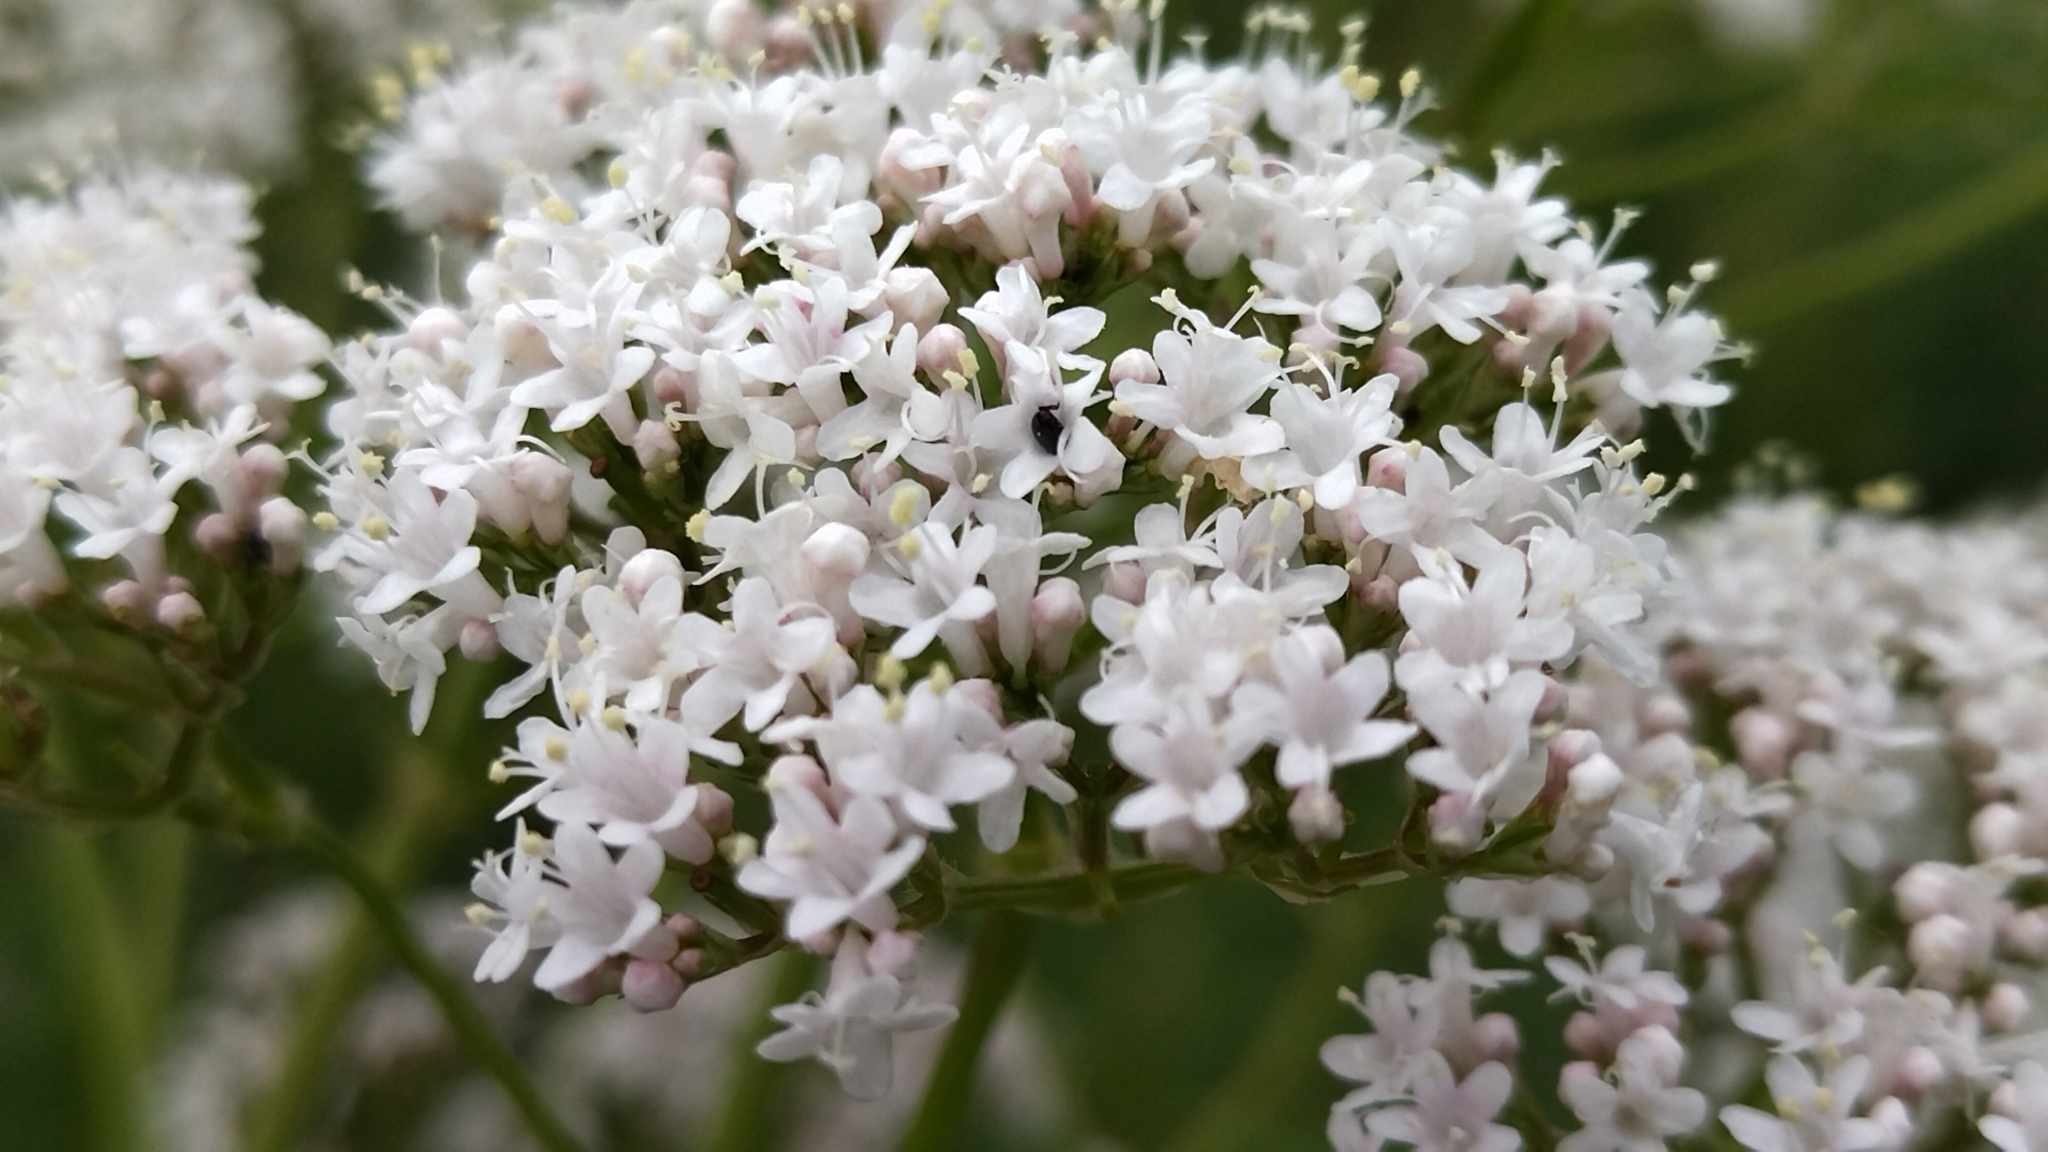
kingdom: Plantae
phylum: Tracheophyta
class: Magnoliopsida
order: Dipsacales
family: Caprifoliaceae
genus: Valeriana
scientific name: Valeriana officinalis
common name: Common valerian
